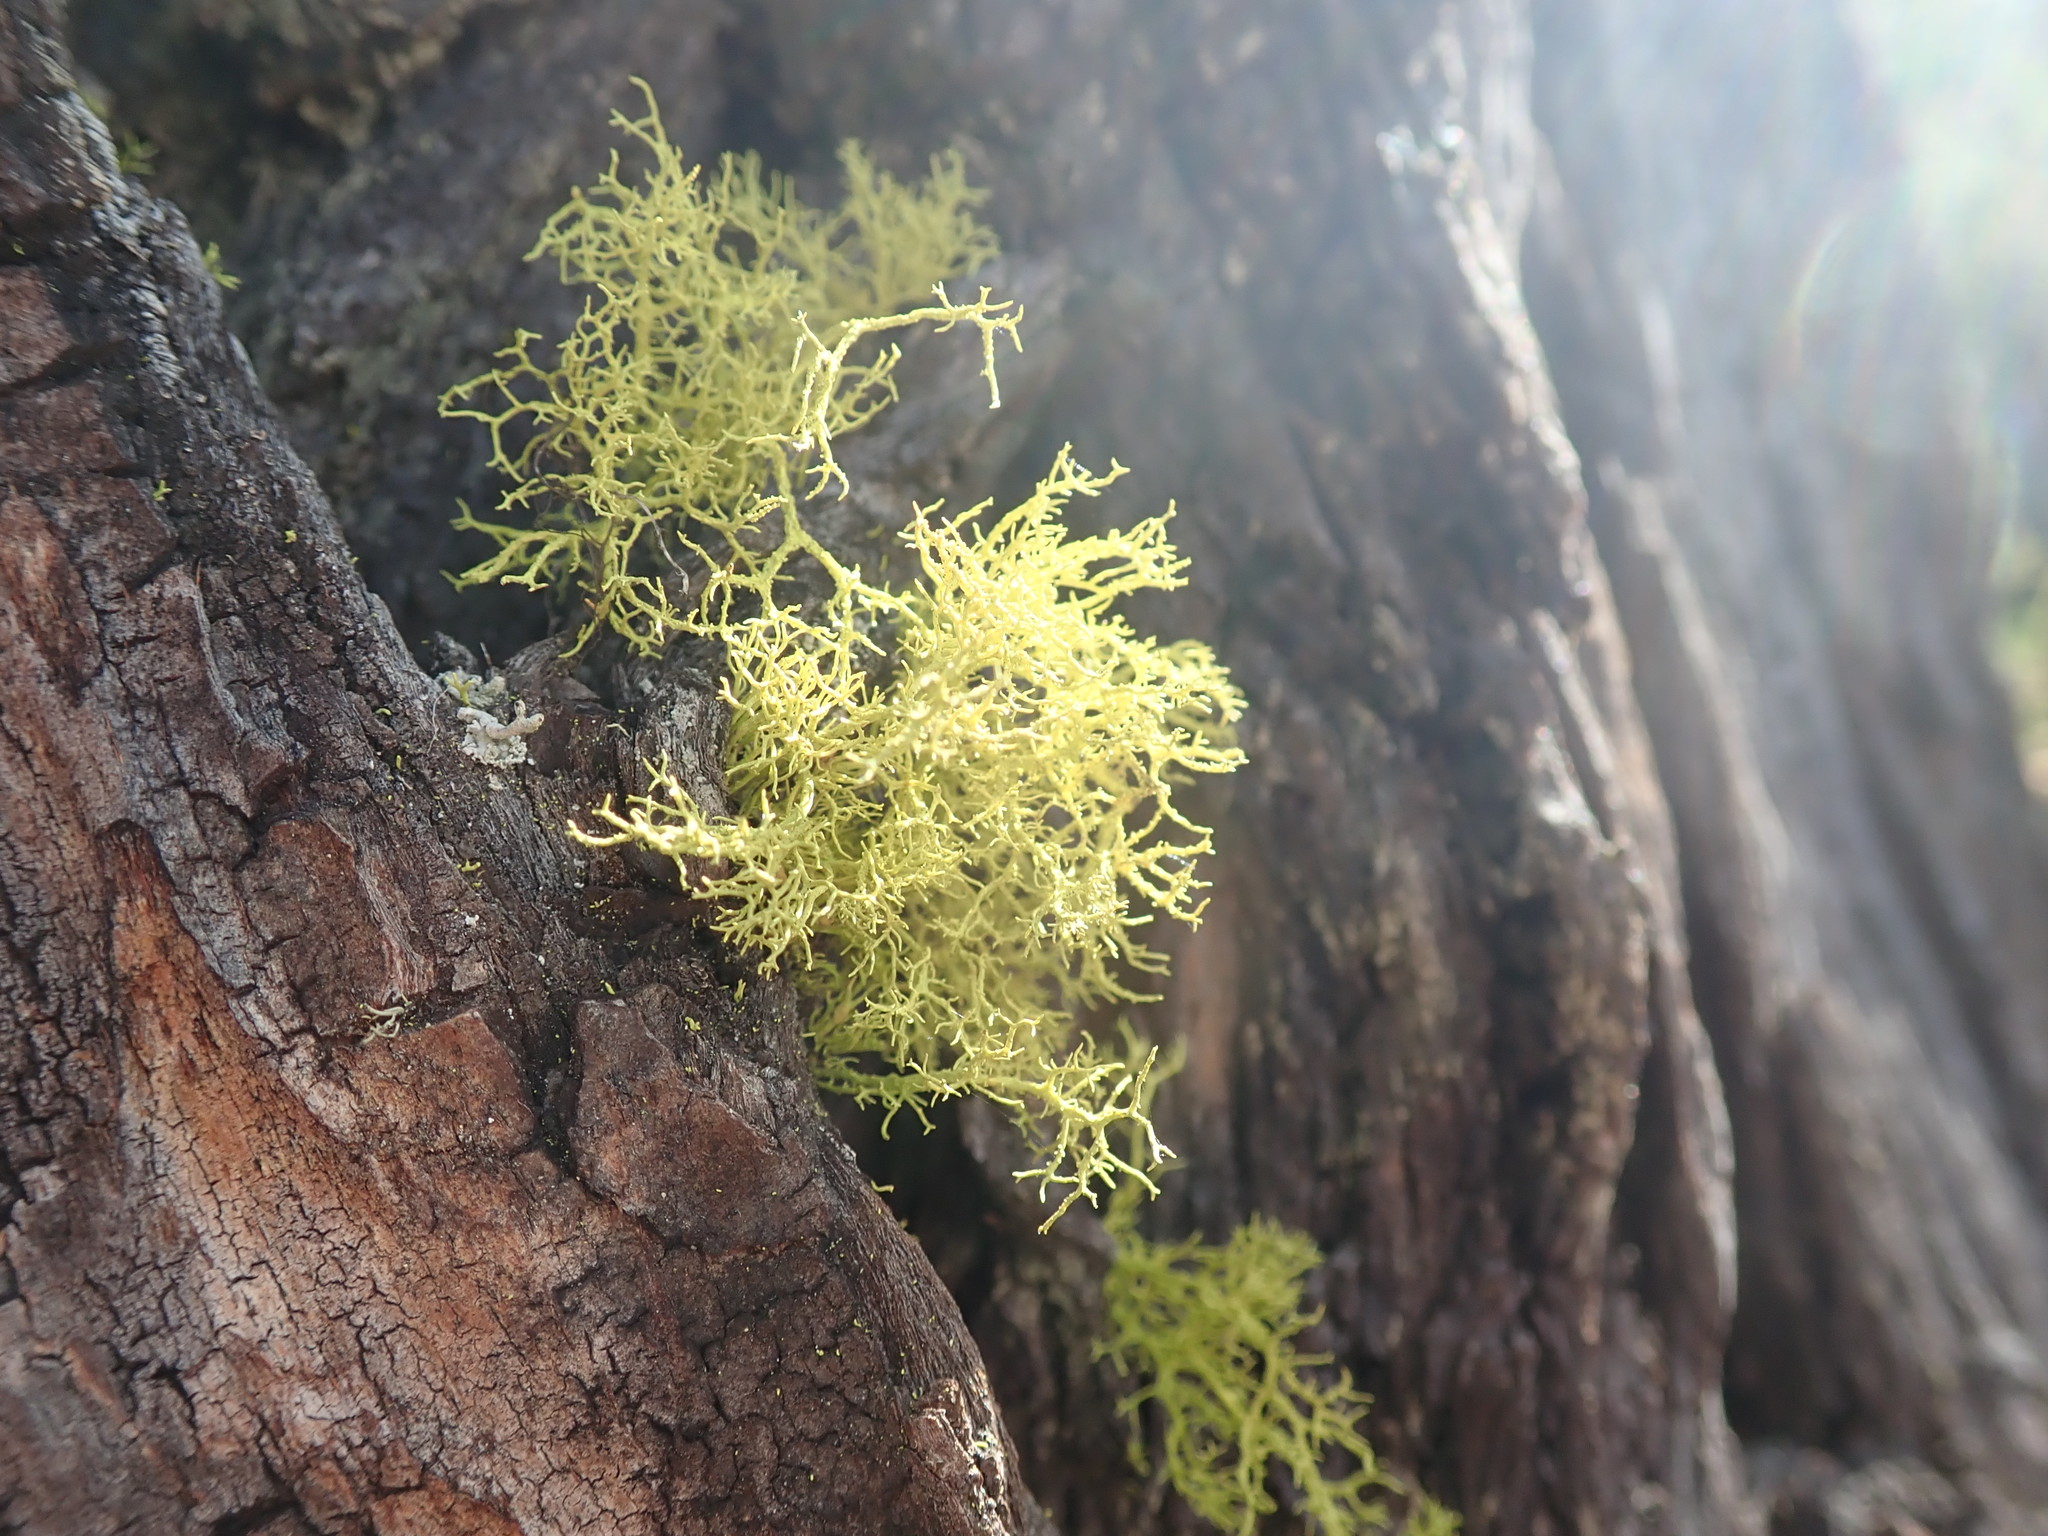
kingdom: Fungi
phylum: Ascomycota
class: Lecanoromycetes
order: Lecanorales
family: Parmeliaceae
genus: Letharia
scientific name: Letharia vulpina
